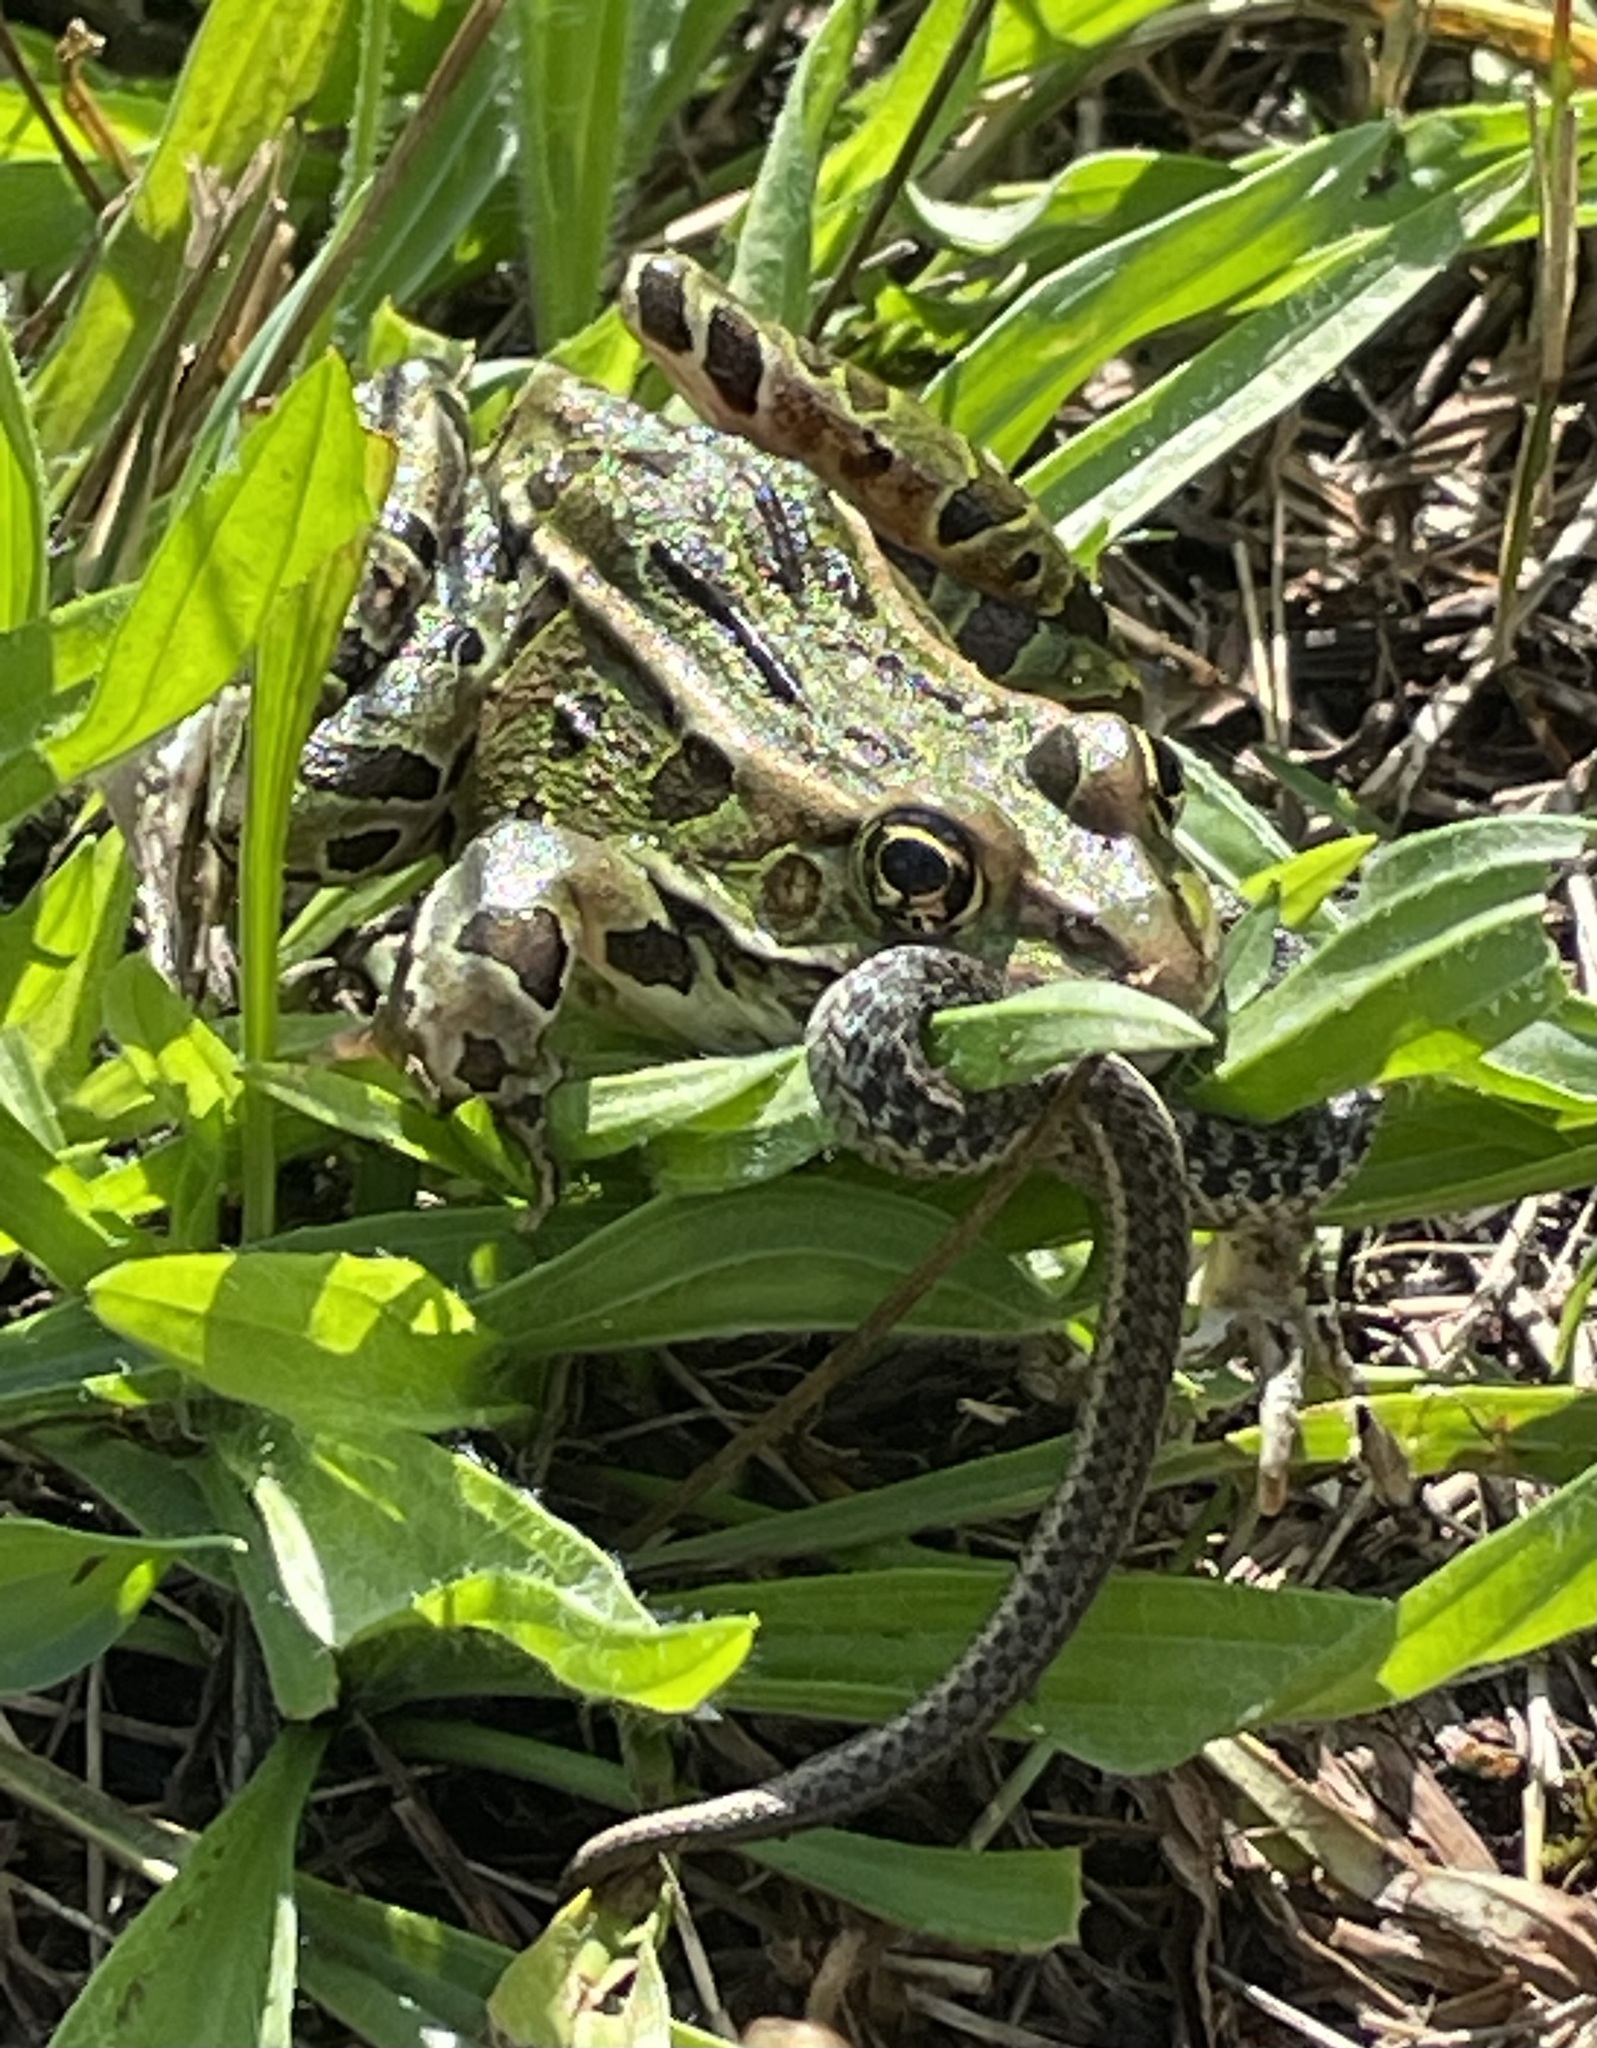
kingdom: Animalia
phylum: Chordata
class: Squamata
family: Colubridae
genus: Thamnophis
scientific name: Thamnophis sirtalis
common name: Common garter snake
